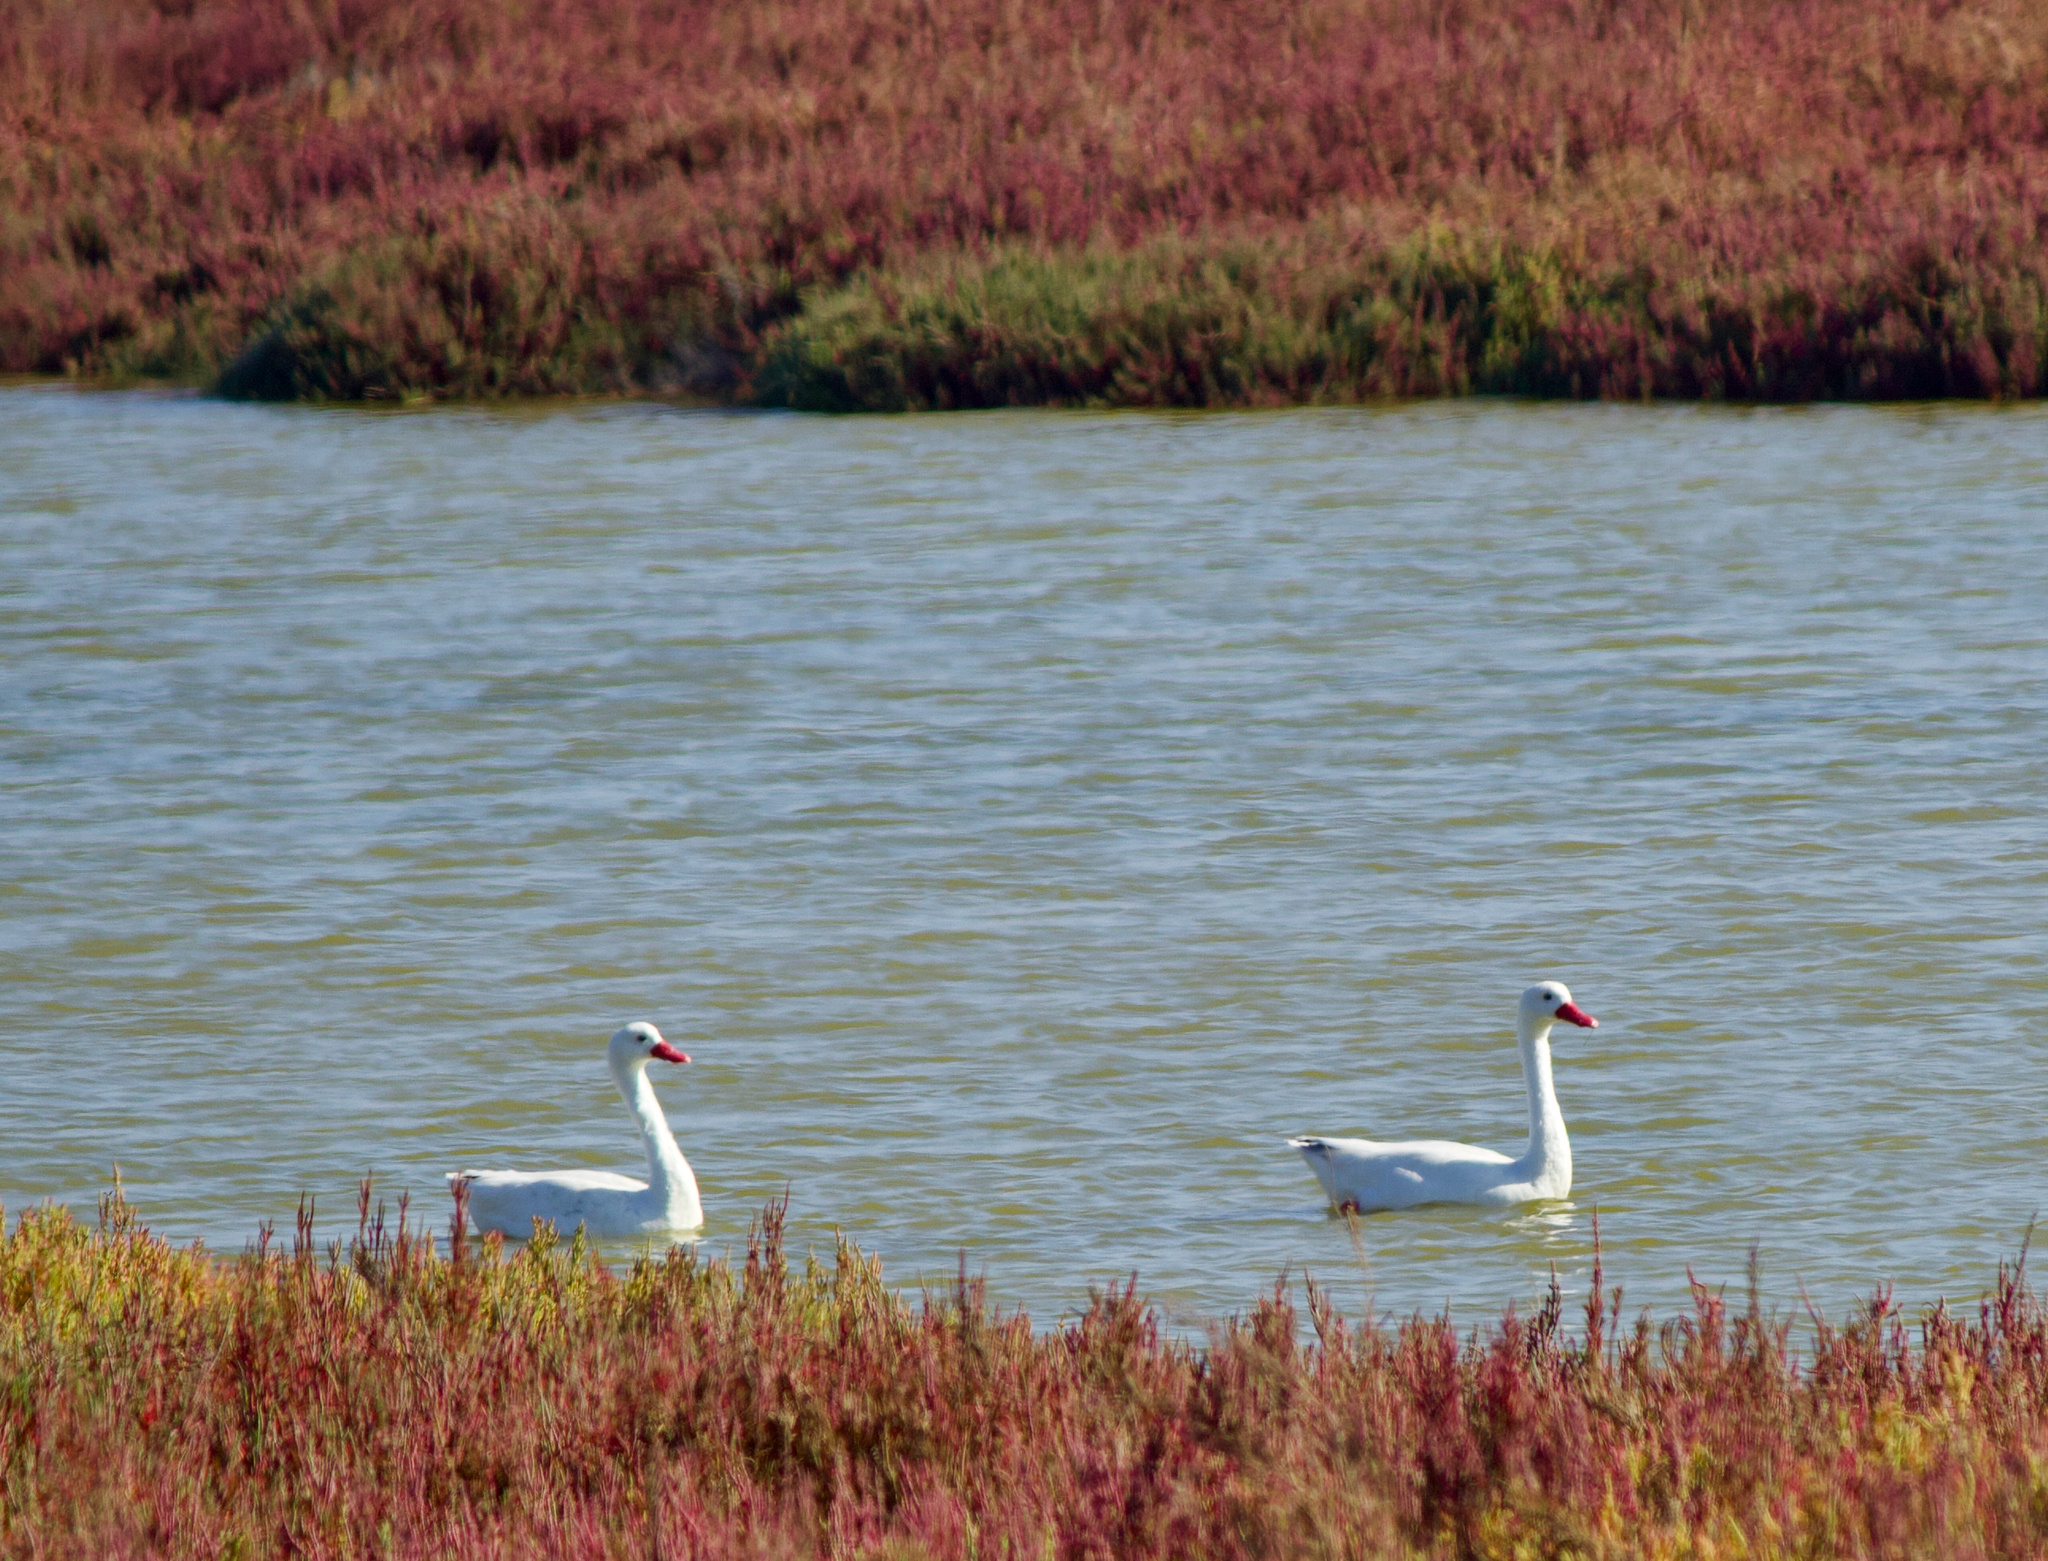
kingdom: Animalia
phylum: Chordata
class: Aves
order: Anseriformes
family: Anatidae
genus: Coscoroba
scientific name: Coscoroba coscoroba
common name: Coscoroba swan
